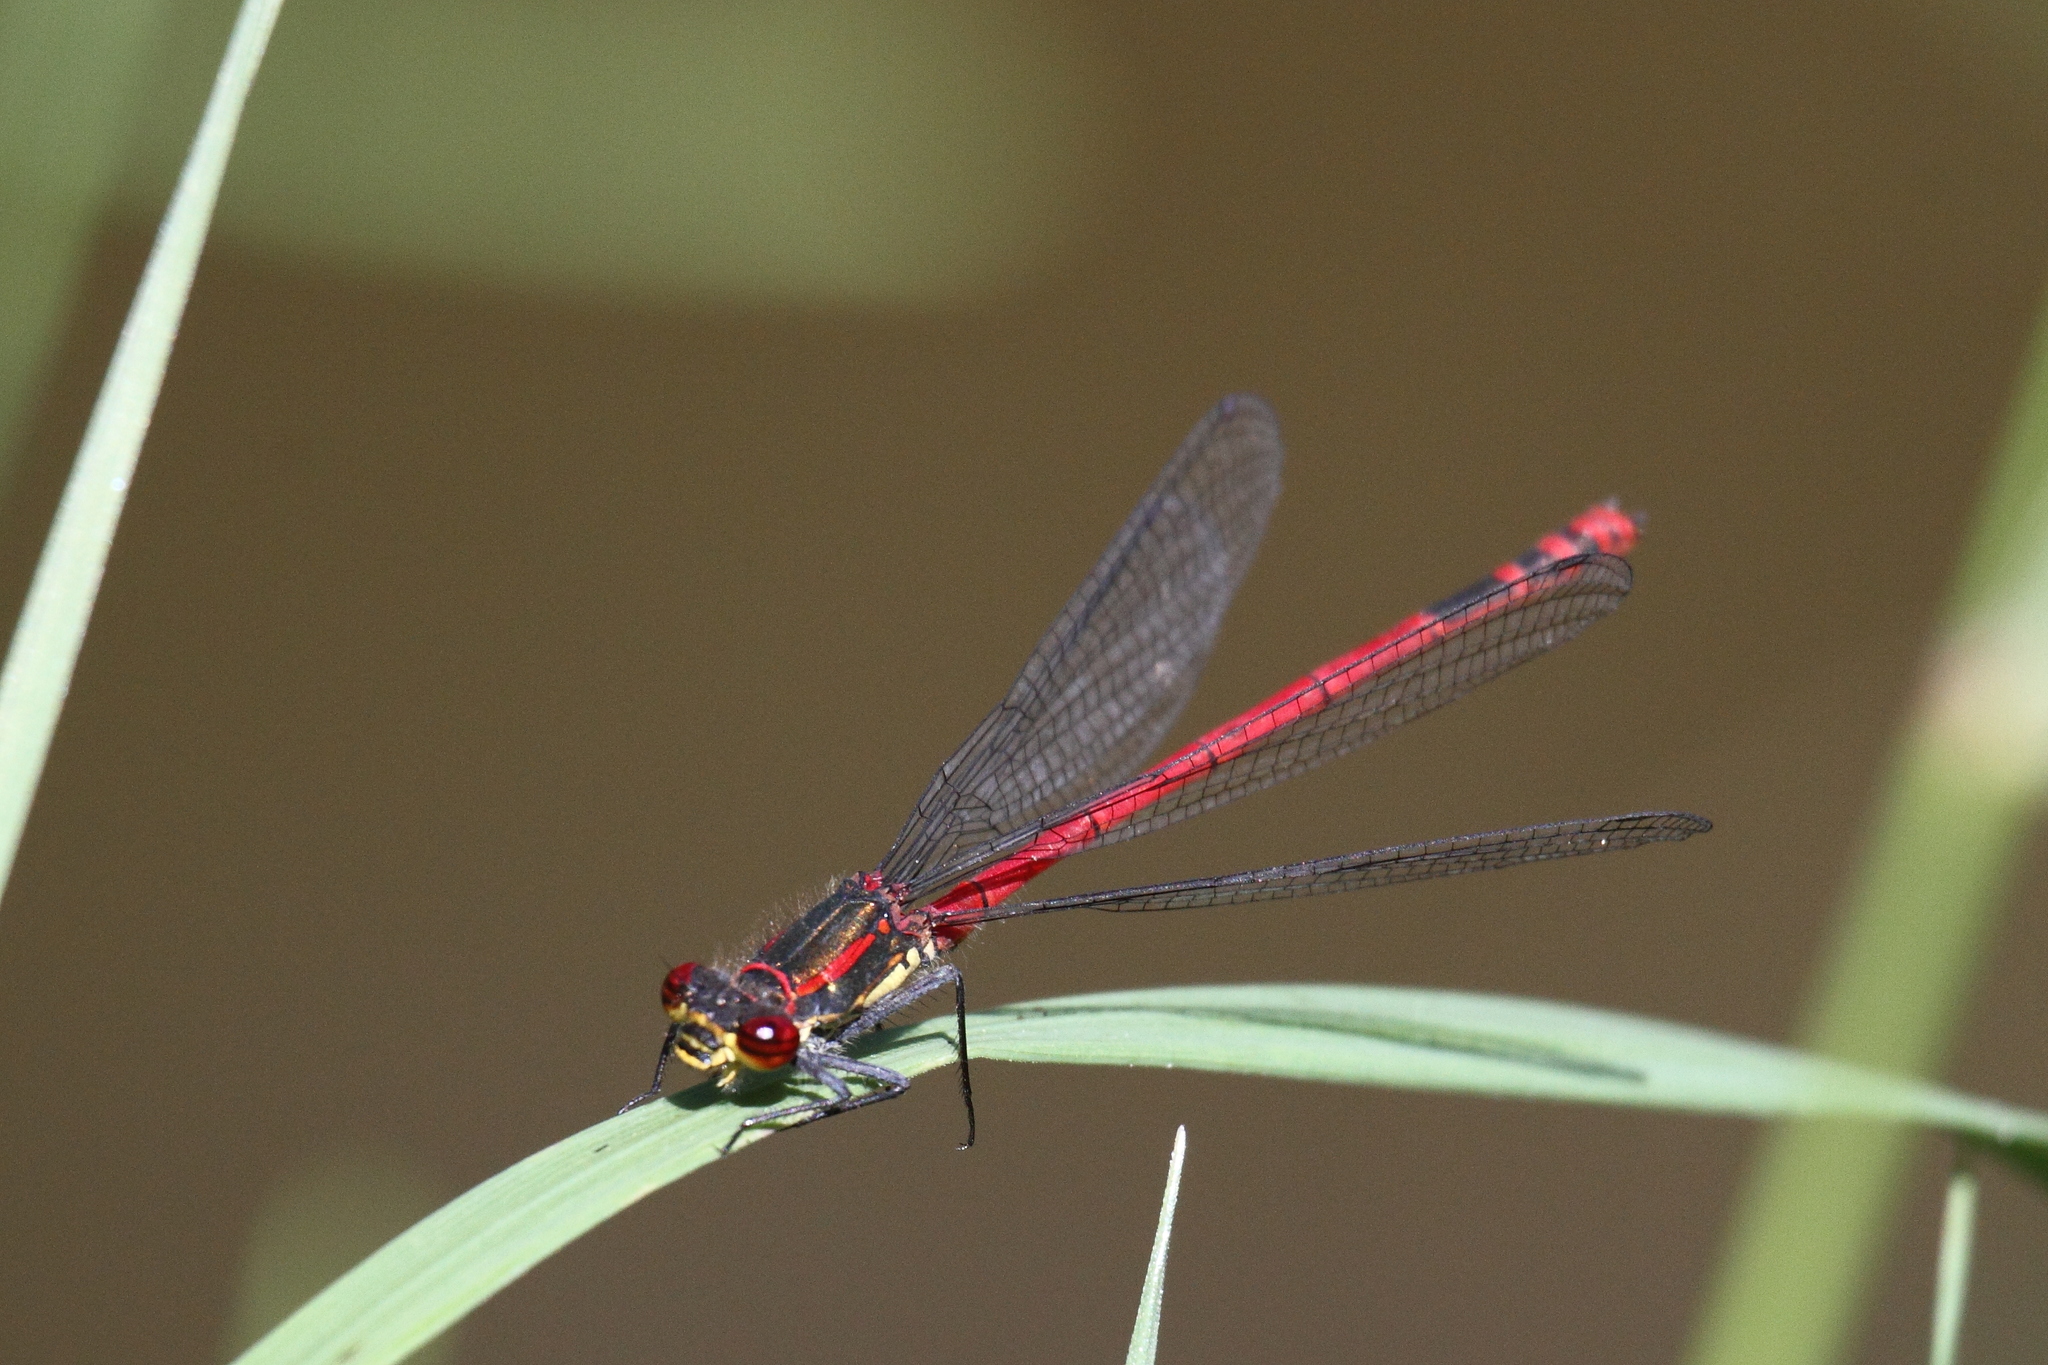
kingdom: Animalia
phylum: Arthropoda
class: Insecta
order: Odonata
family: Coenagrionidae
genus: Pyrrhosoma
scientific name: Pyrrhosoma nymphula
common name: Large red damsel
